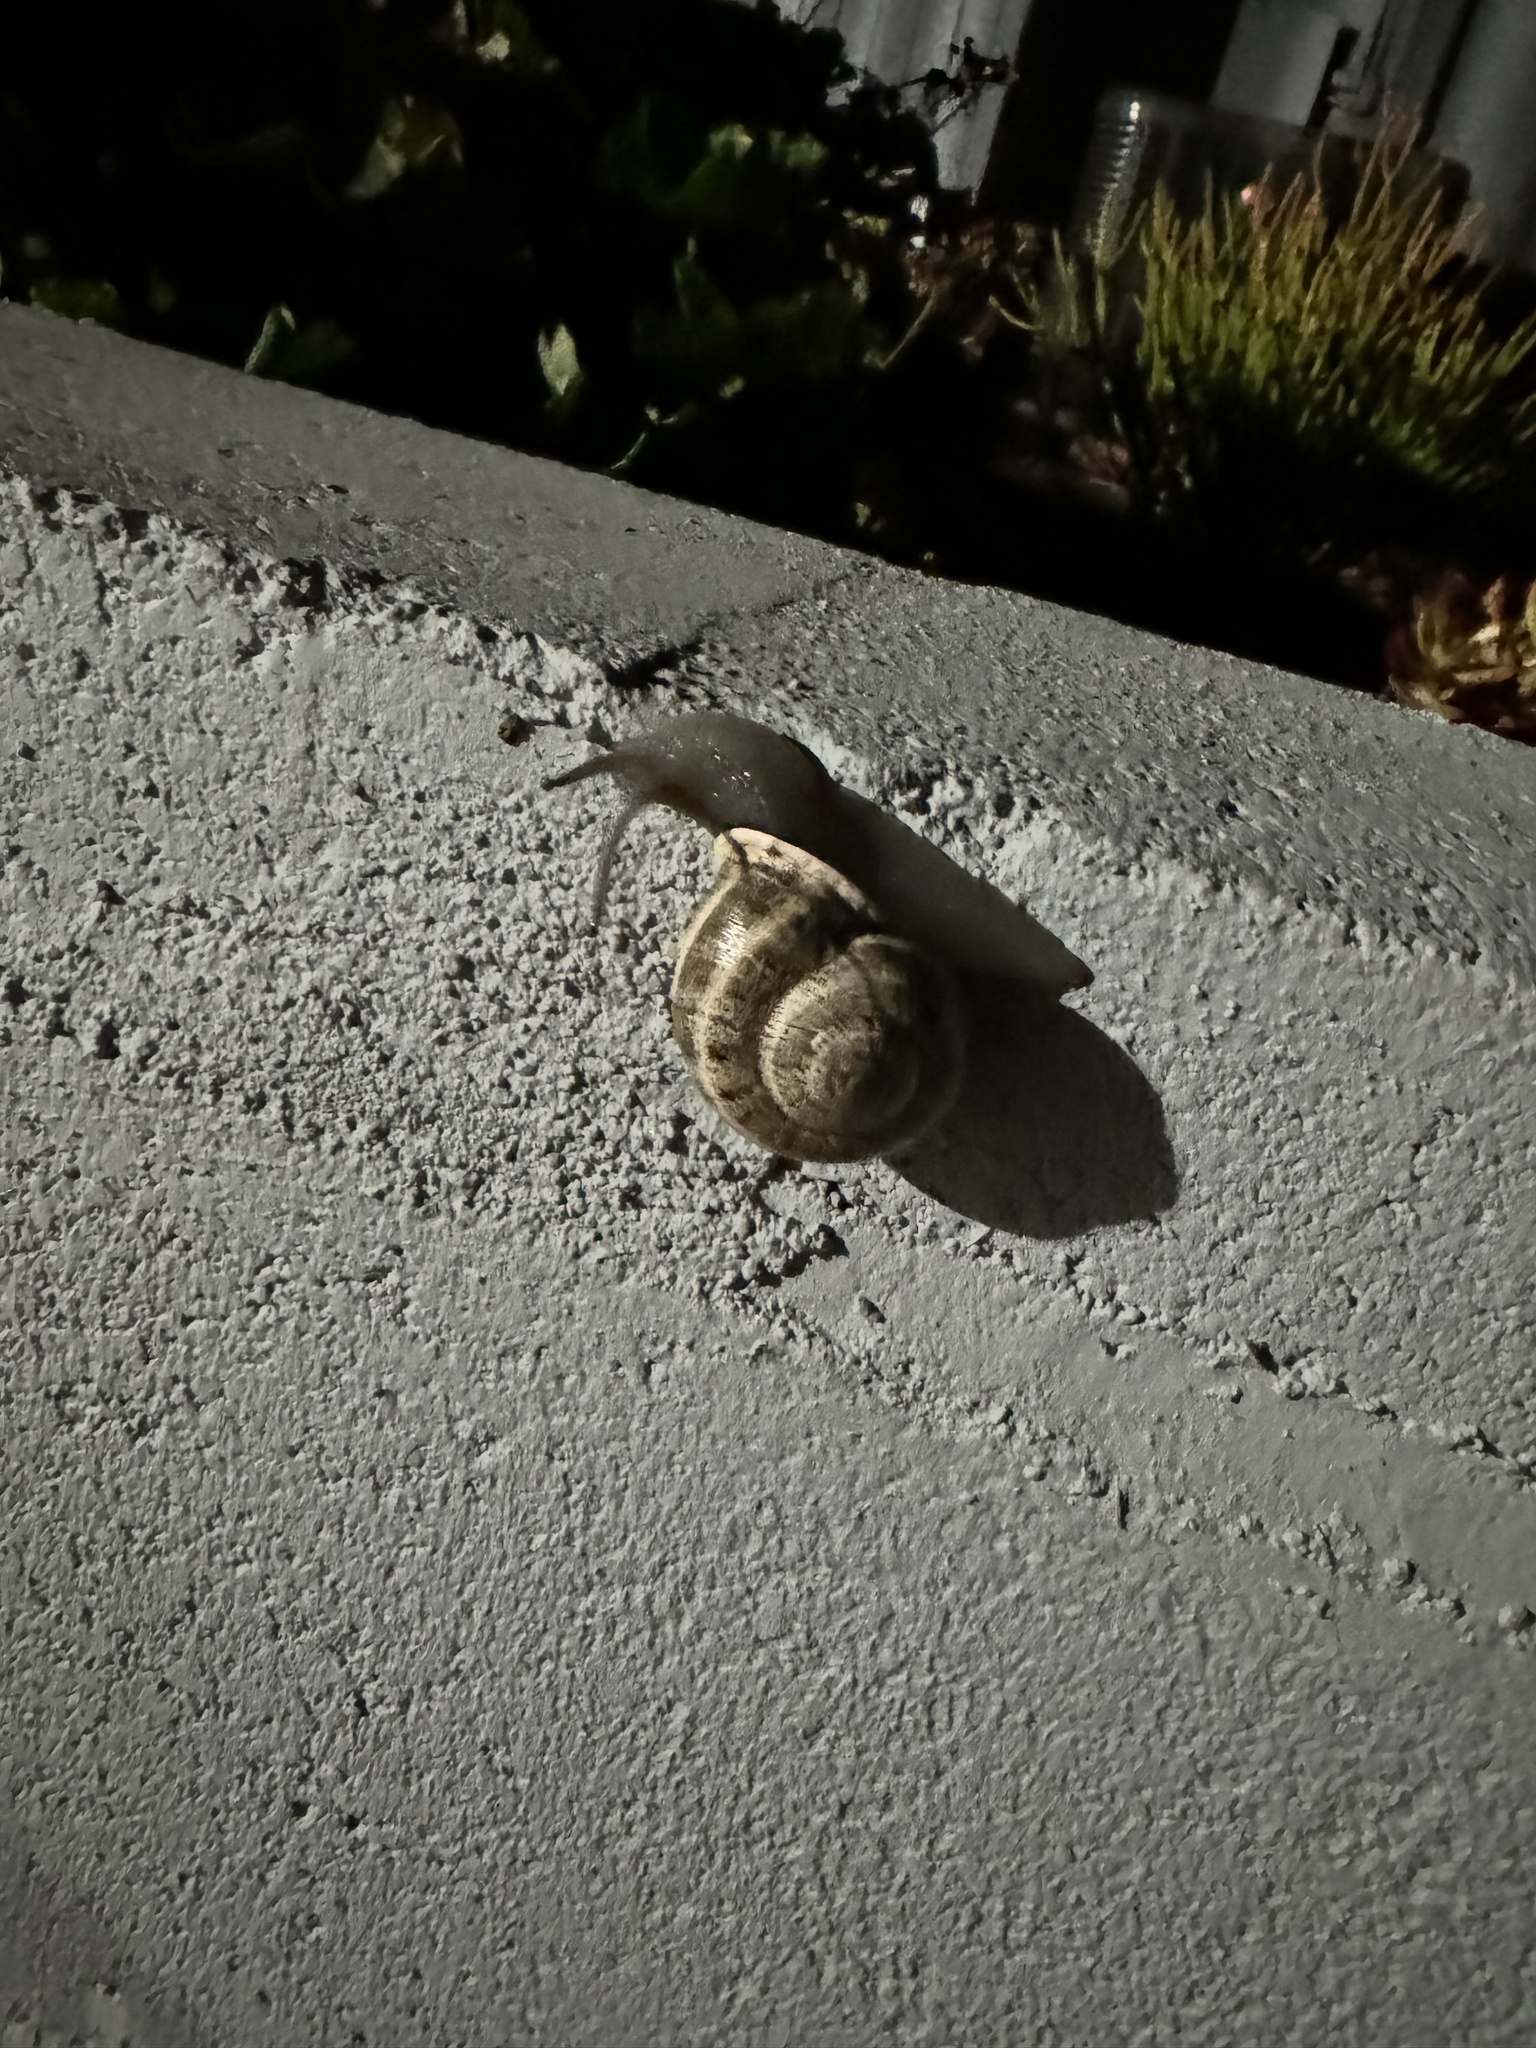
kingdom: Animalia
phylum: Mollusca
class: Gastropoda
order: Stylommatophora
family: Helicidae
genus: Otala
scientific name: Otala lactea
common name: Milk snail
